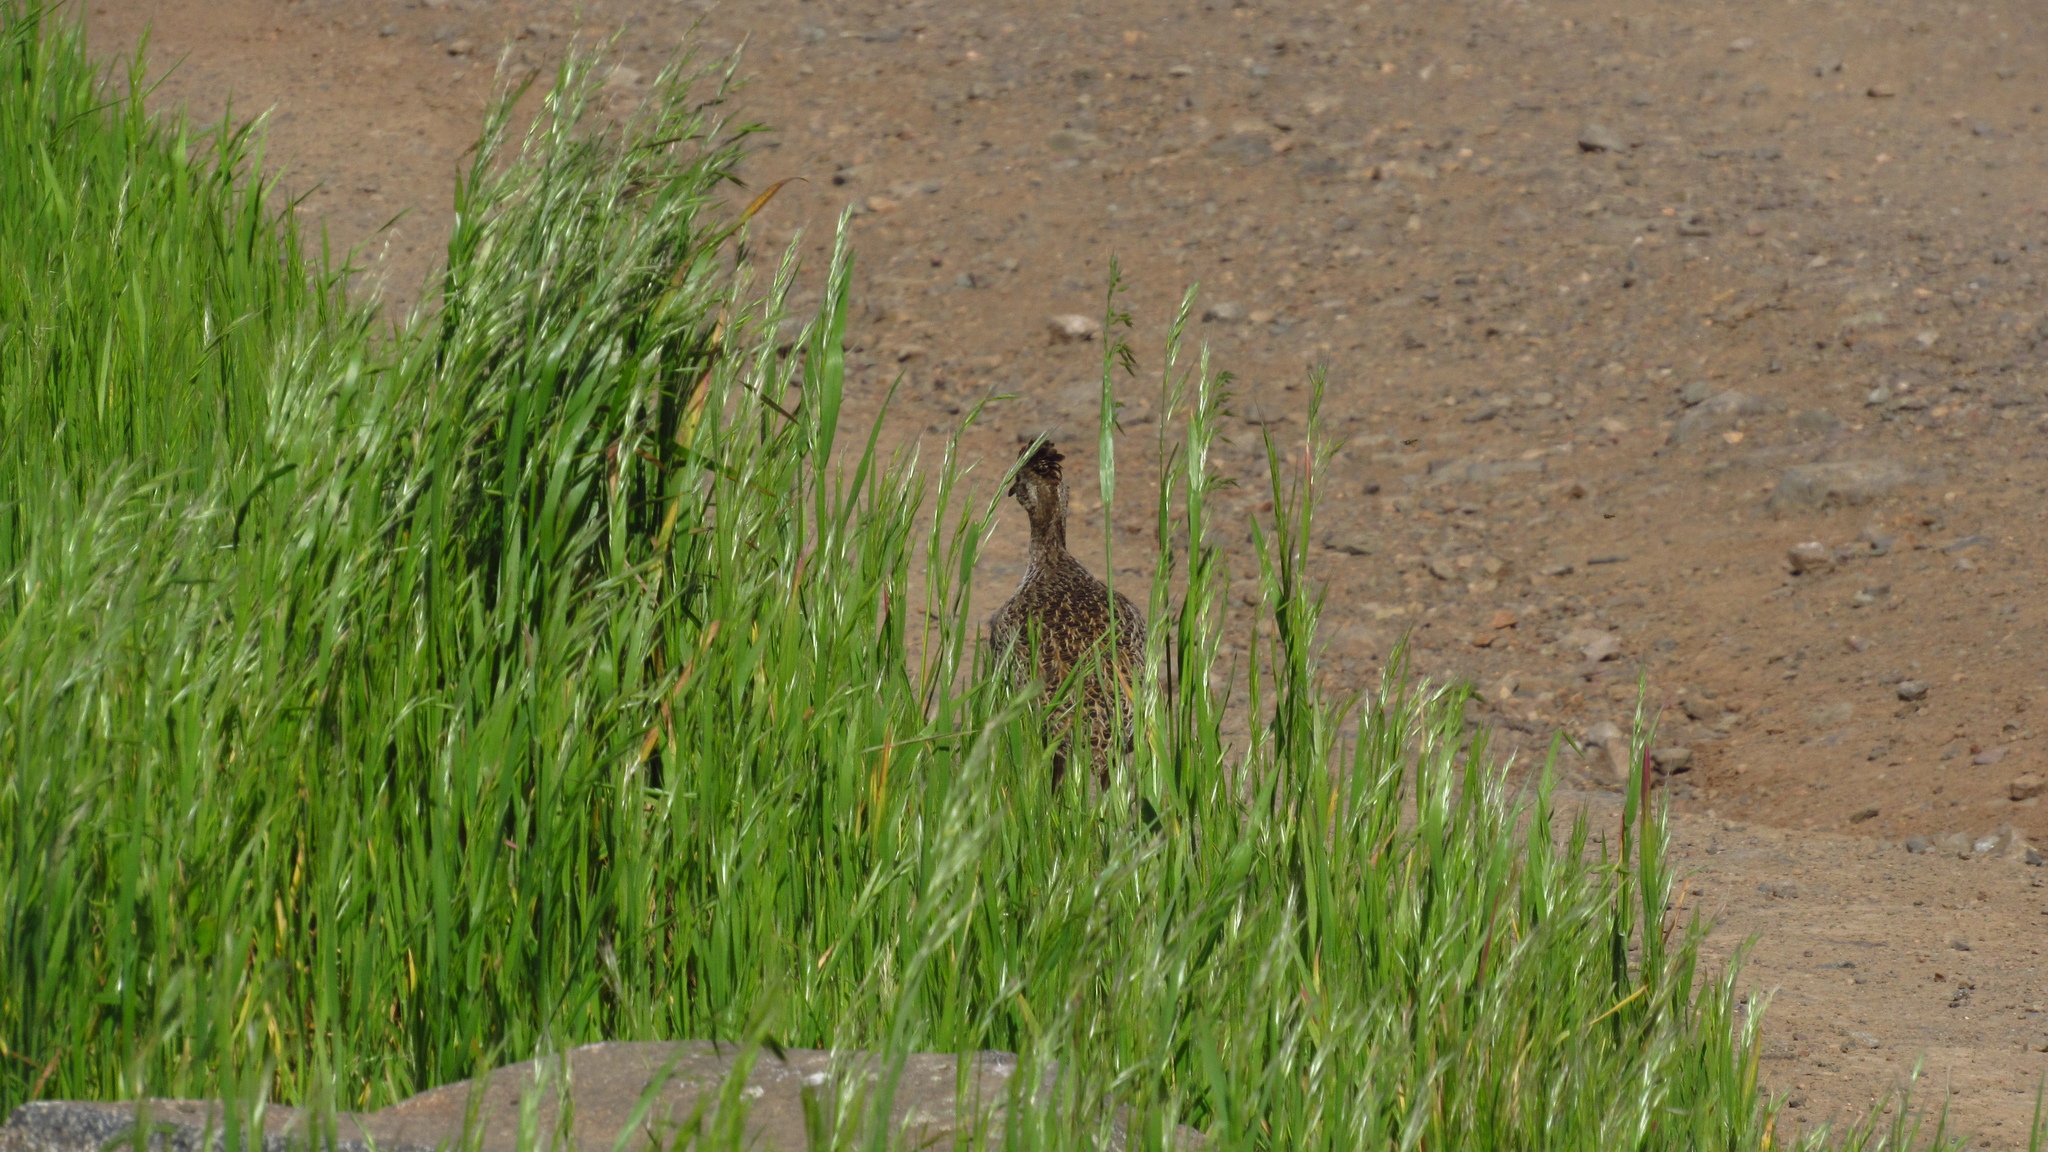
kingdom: Animalia
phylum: Chordata
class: Aves
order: Tinamiformes
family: Tinamidae
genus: Nothoprocta
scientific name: Nothoprocta perdicaria
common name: Chilean tinamou
